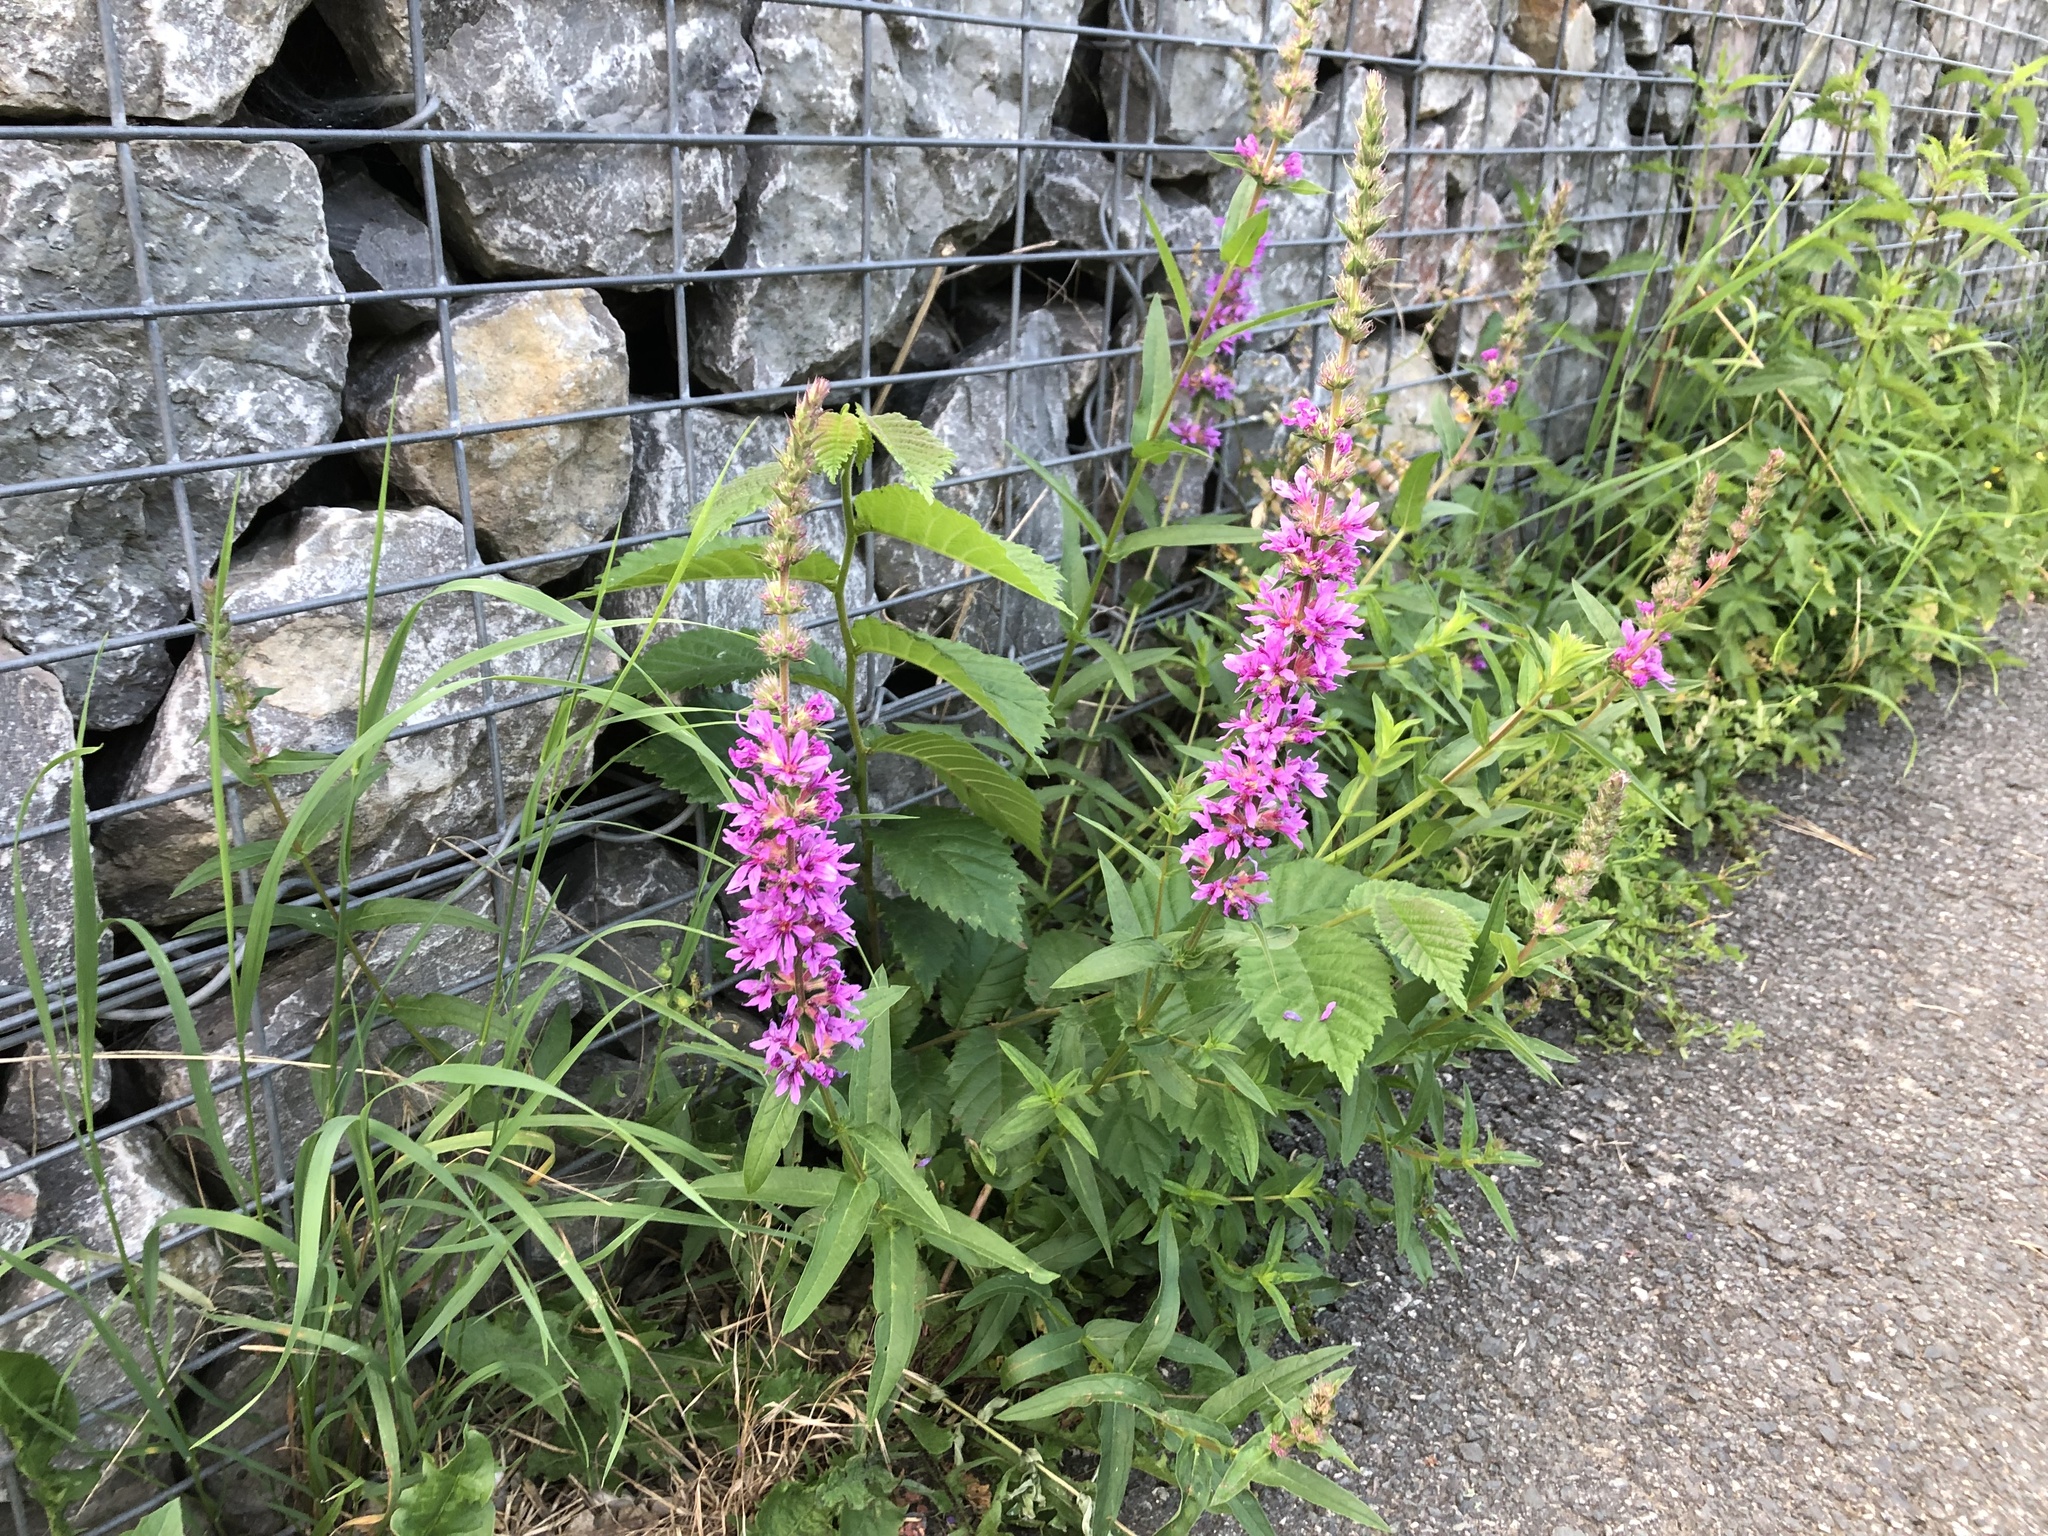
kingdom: Plantae
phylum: Tracheophyta
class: Magnoliopsida
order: Myrtales
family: Lythraceae
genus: Lythrum
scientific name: Lythrum salicaria
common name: Purple loosestrife
